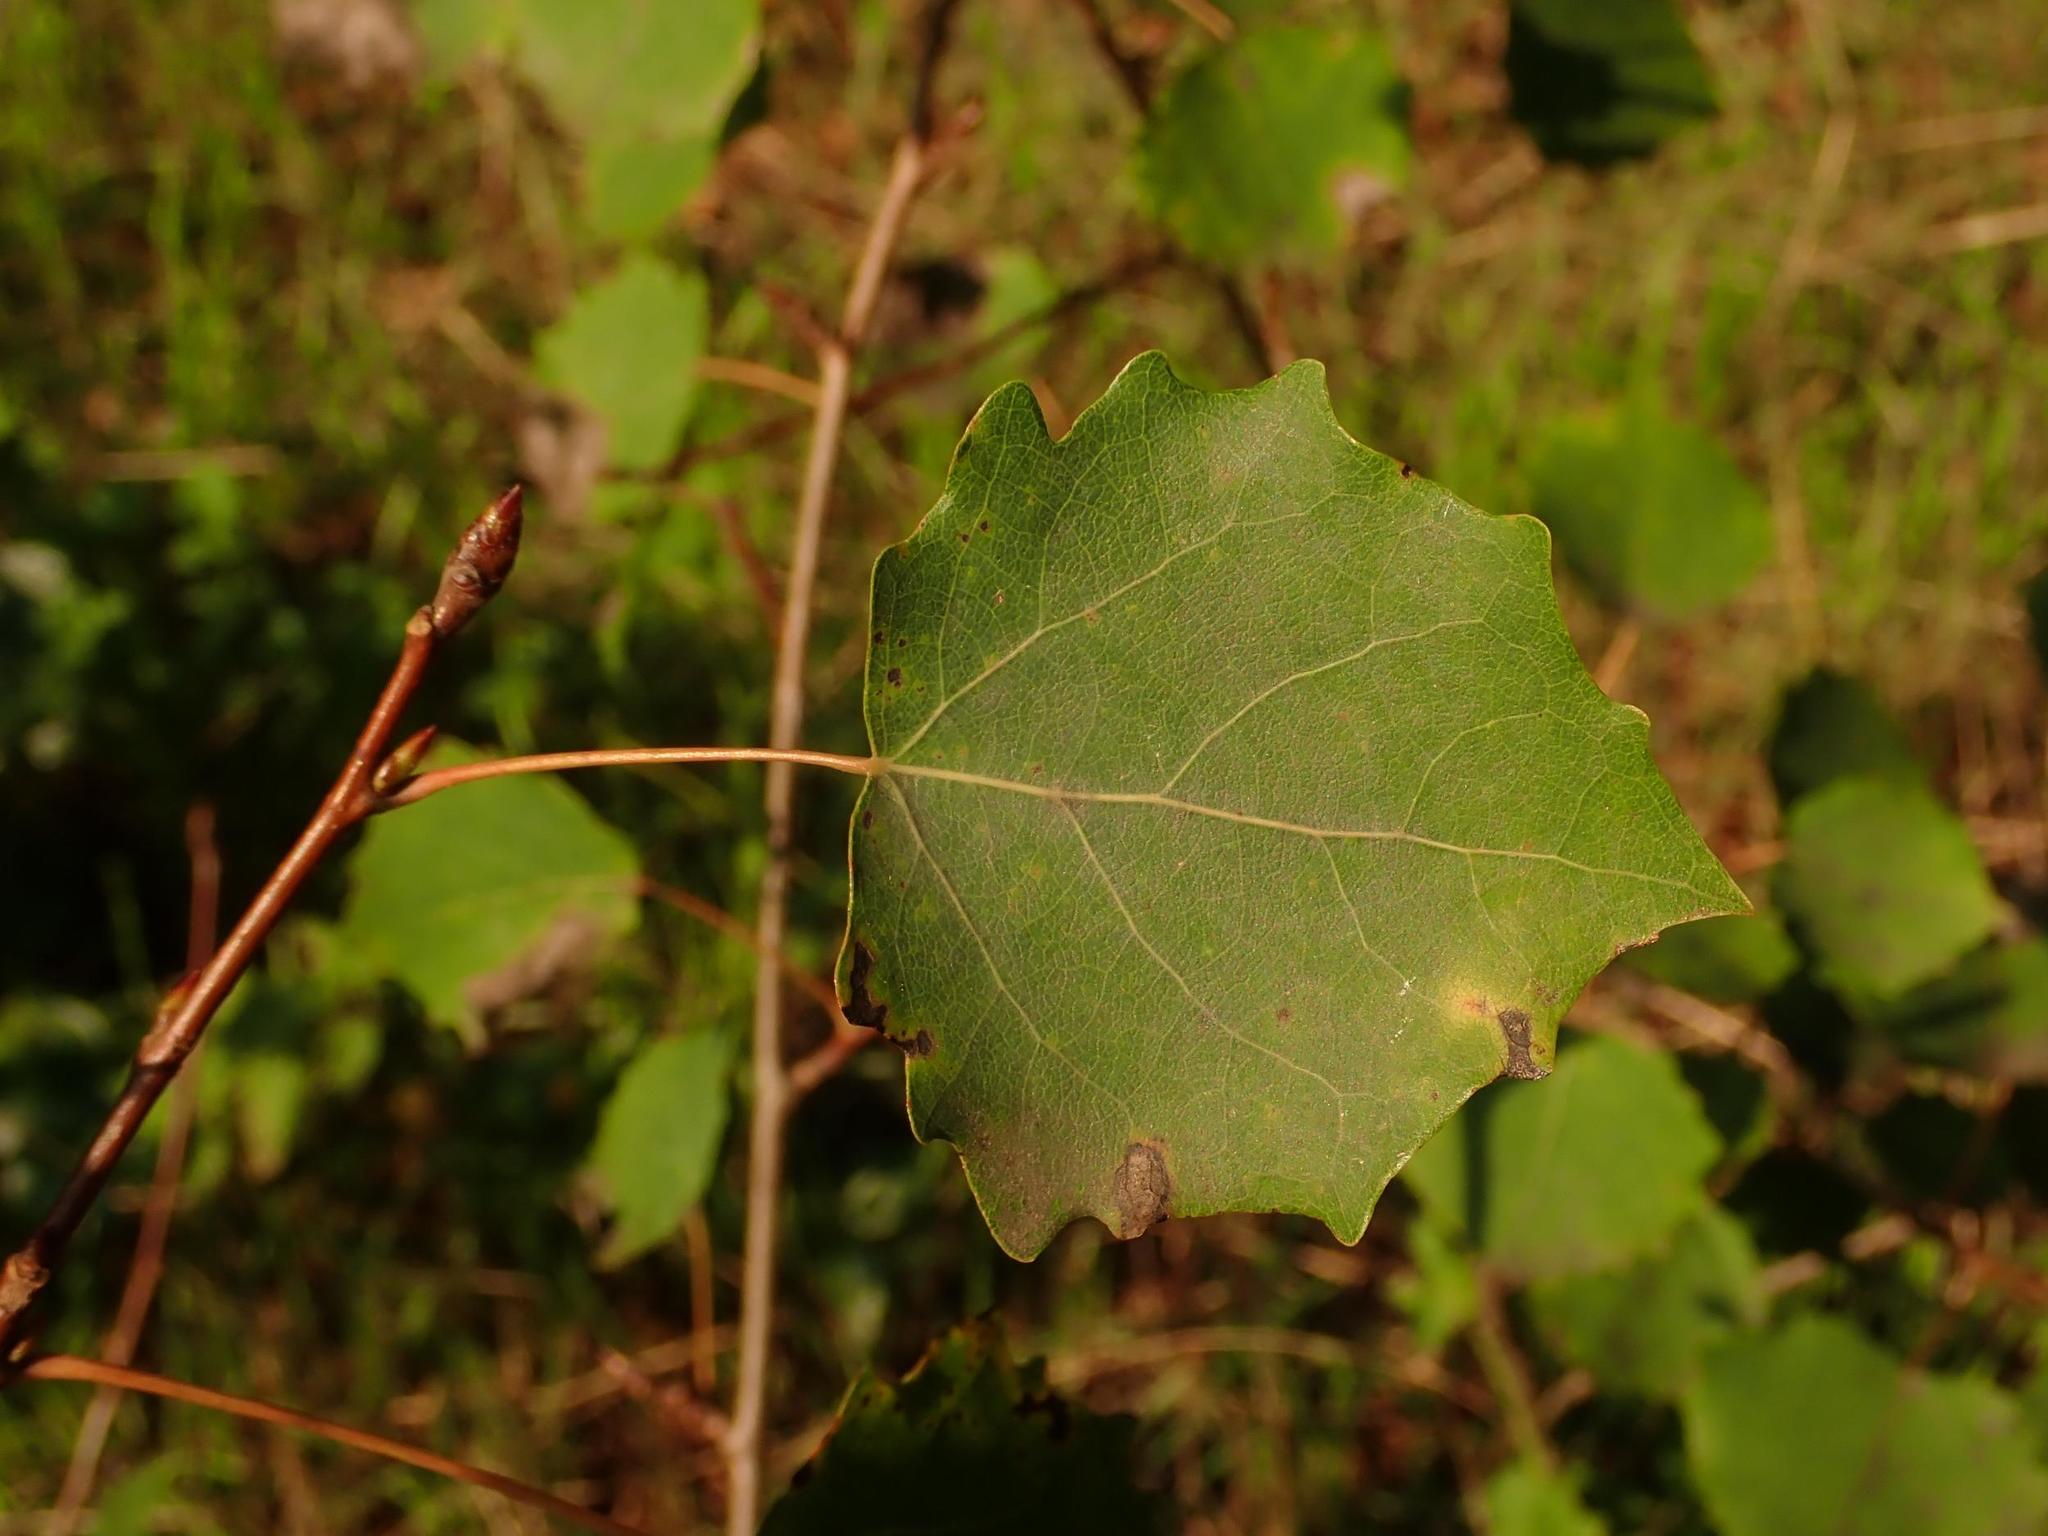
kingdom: Plantae
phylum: Tracheophyta
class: Magnoliopsida
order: Malpighiales
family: Salicaceae
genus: Populus
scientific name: Populus tremula
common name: European aspen
